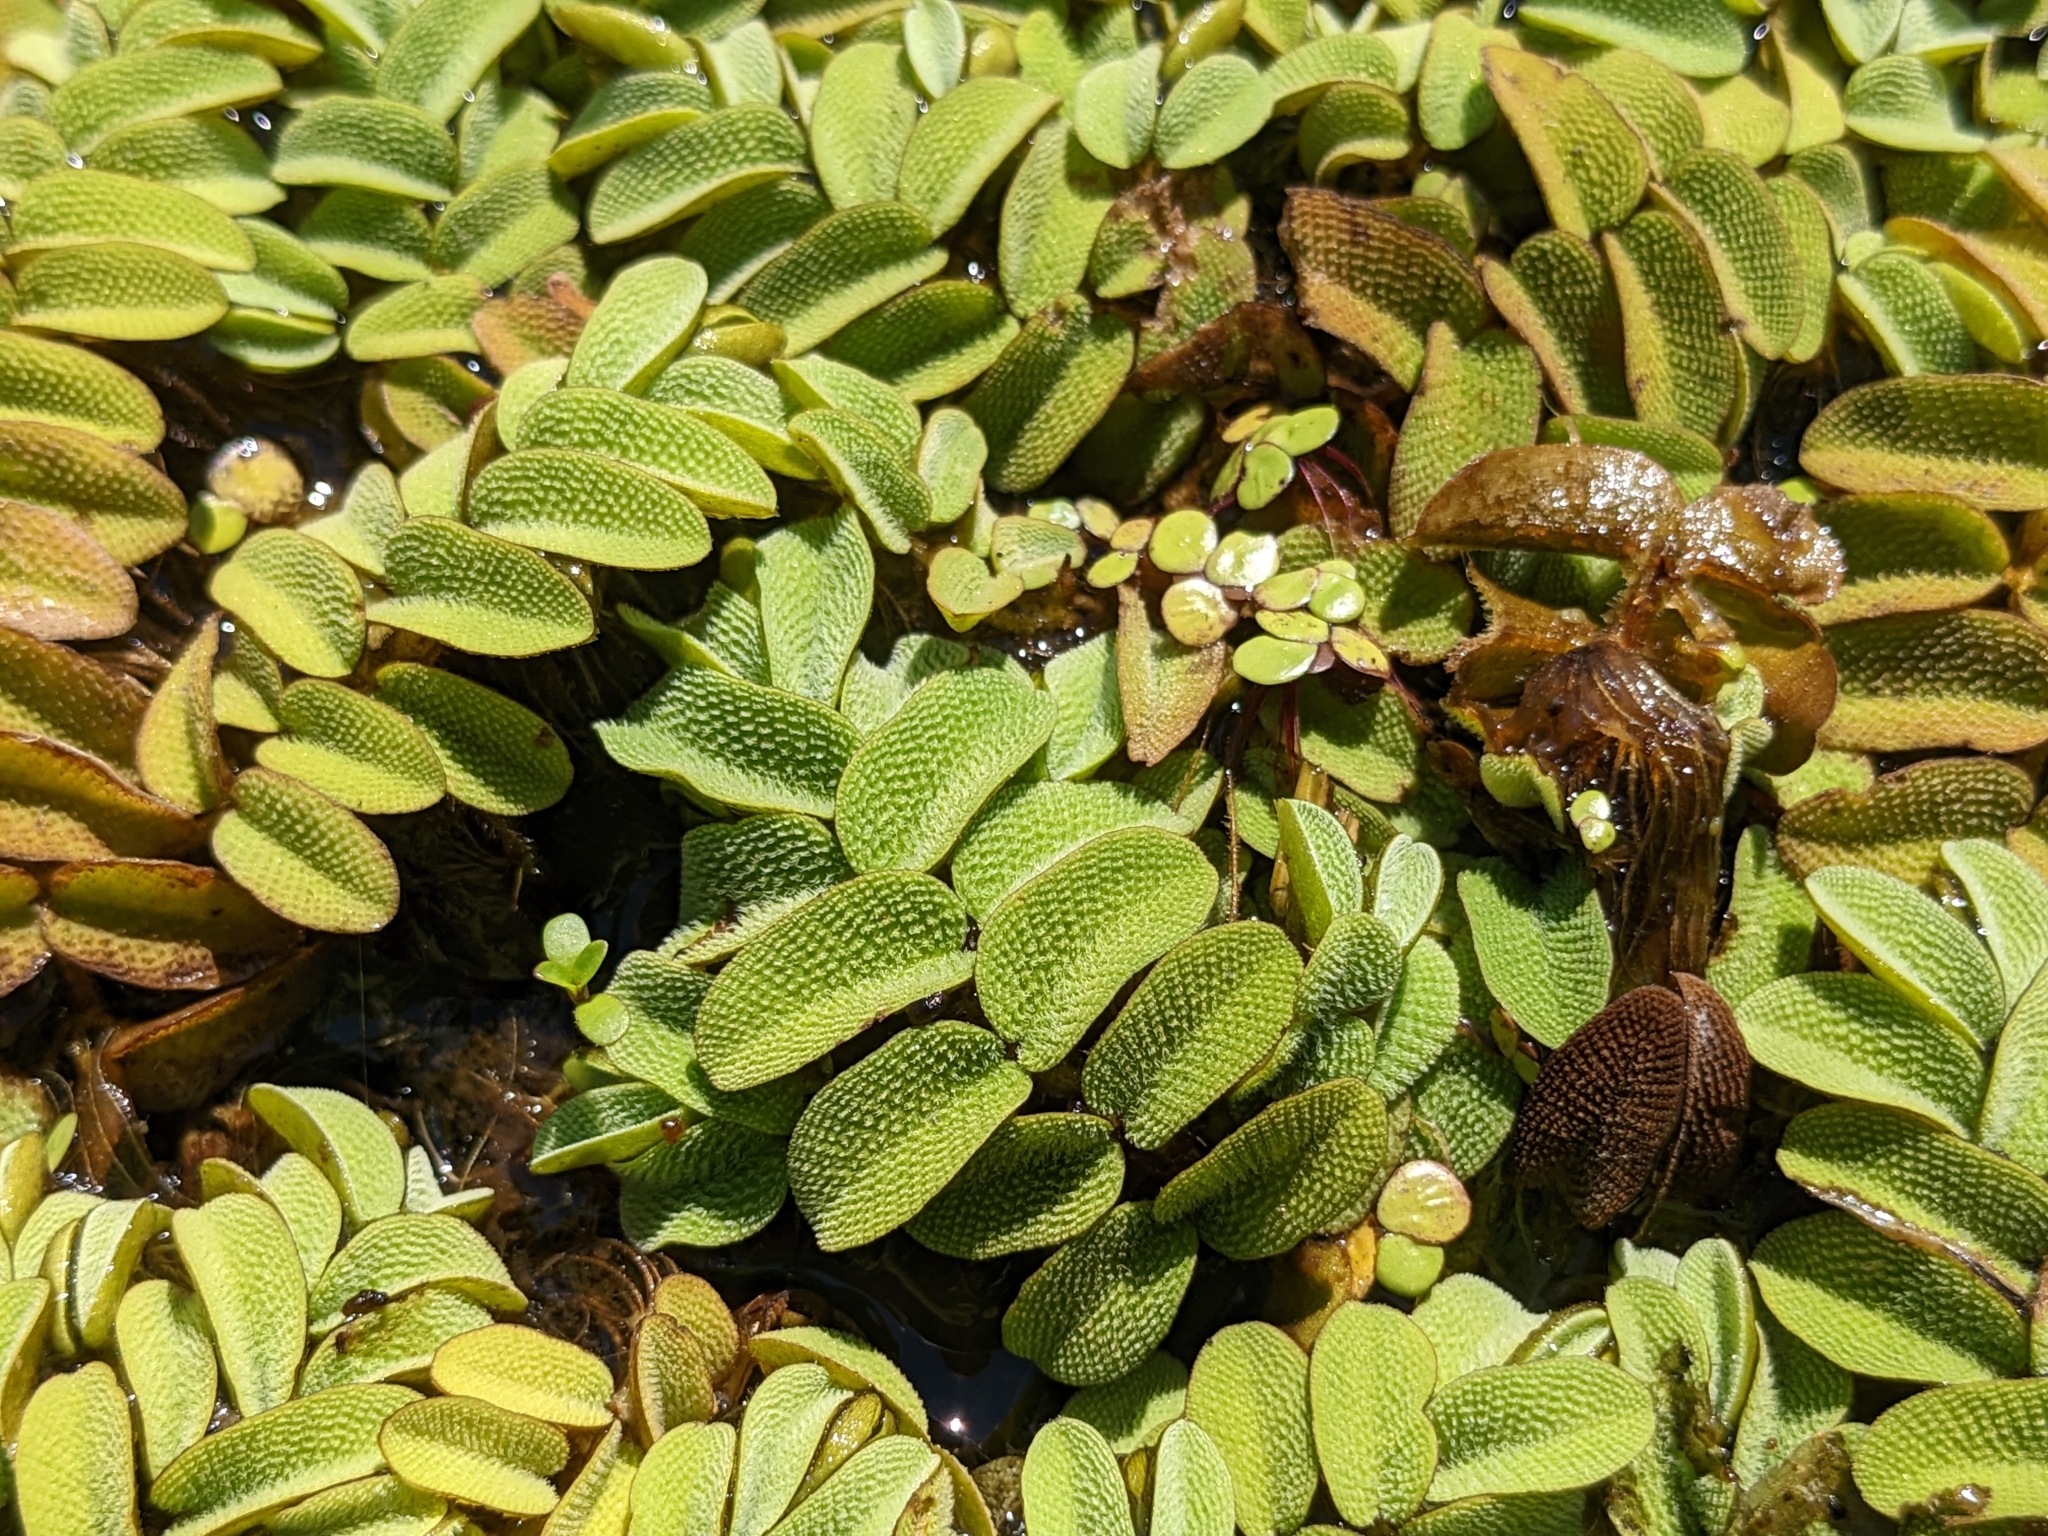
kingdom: Plantae
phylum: Tracheophyta
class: Polypodiopsida
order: Salviniales
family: Salviniaceae
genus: Salvinia
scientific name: Salvinia natans
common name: Floating fern
